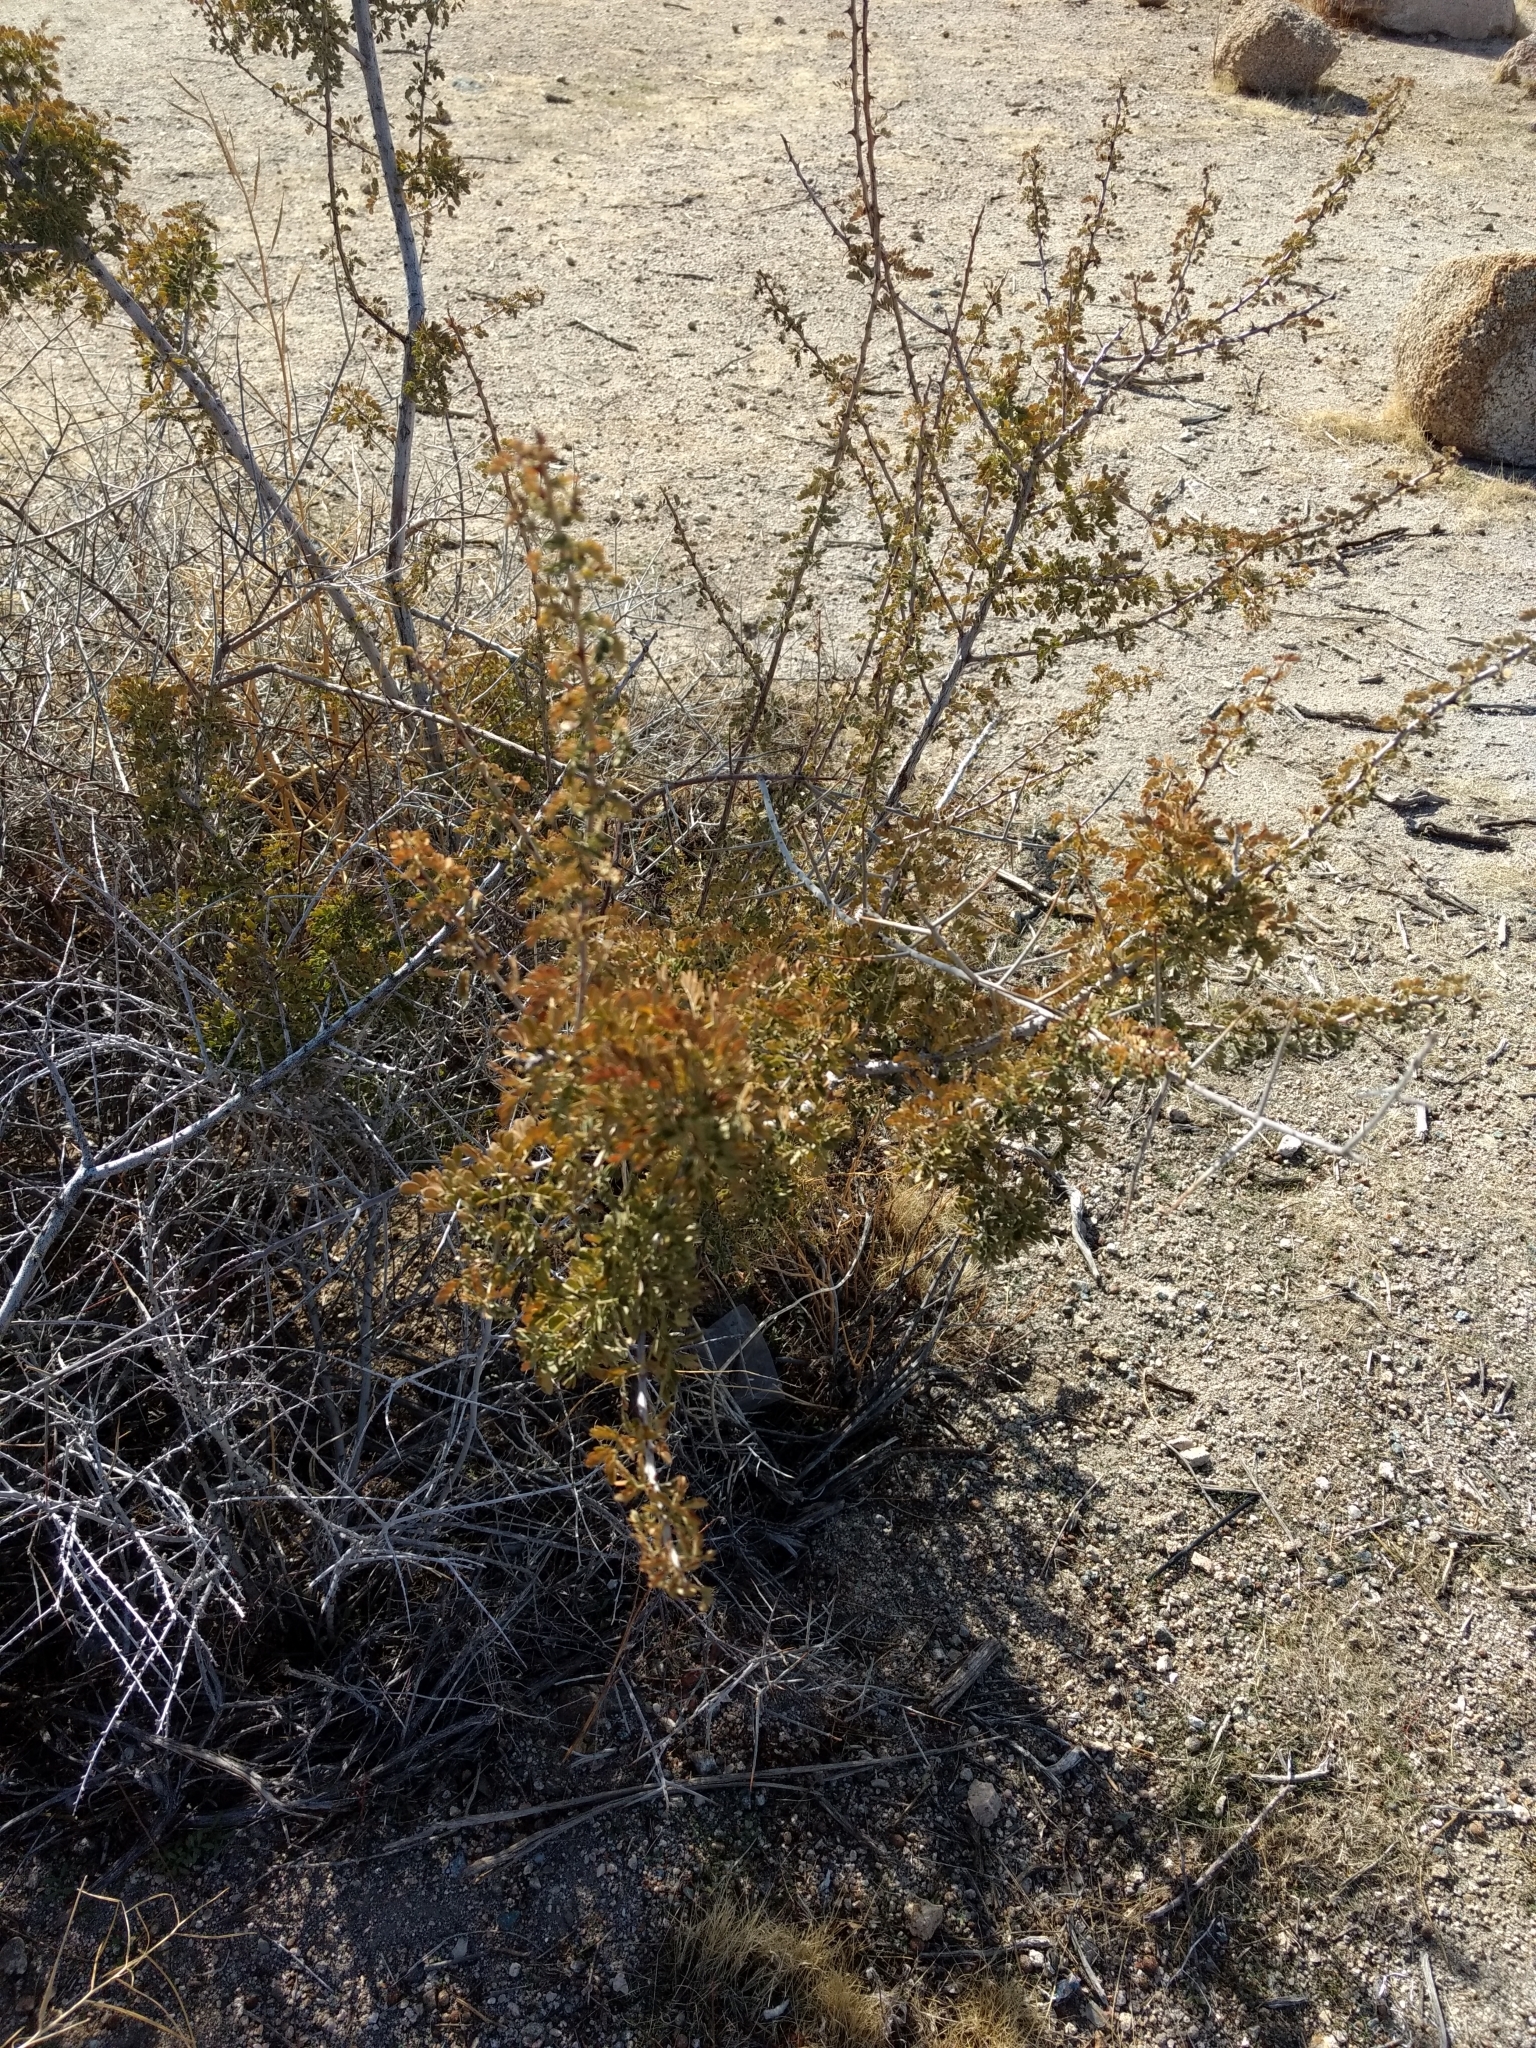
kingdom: Plantae
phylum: Tracheophyta
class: Magnoliopsida
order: Fabales
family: Fabaceae
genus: Senegalia
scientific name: Senegalia greggii
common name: Texas-mimosa
